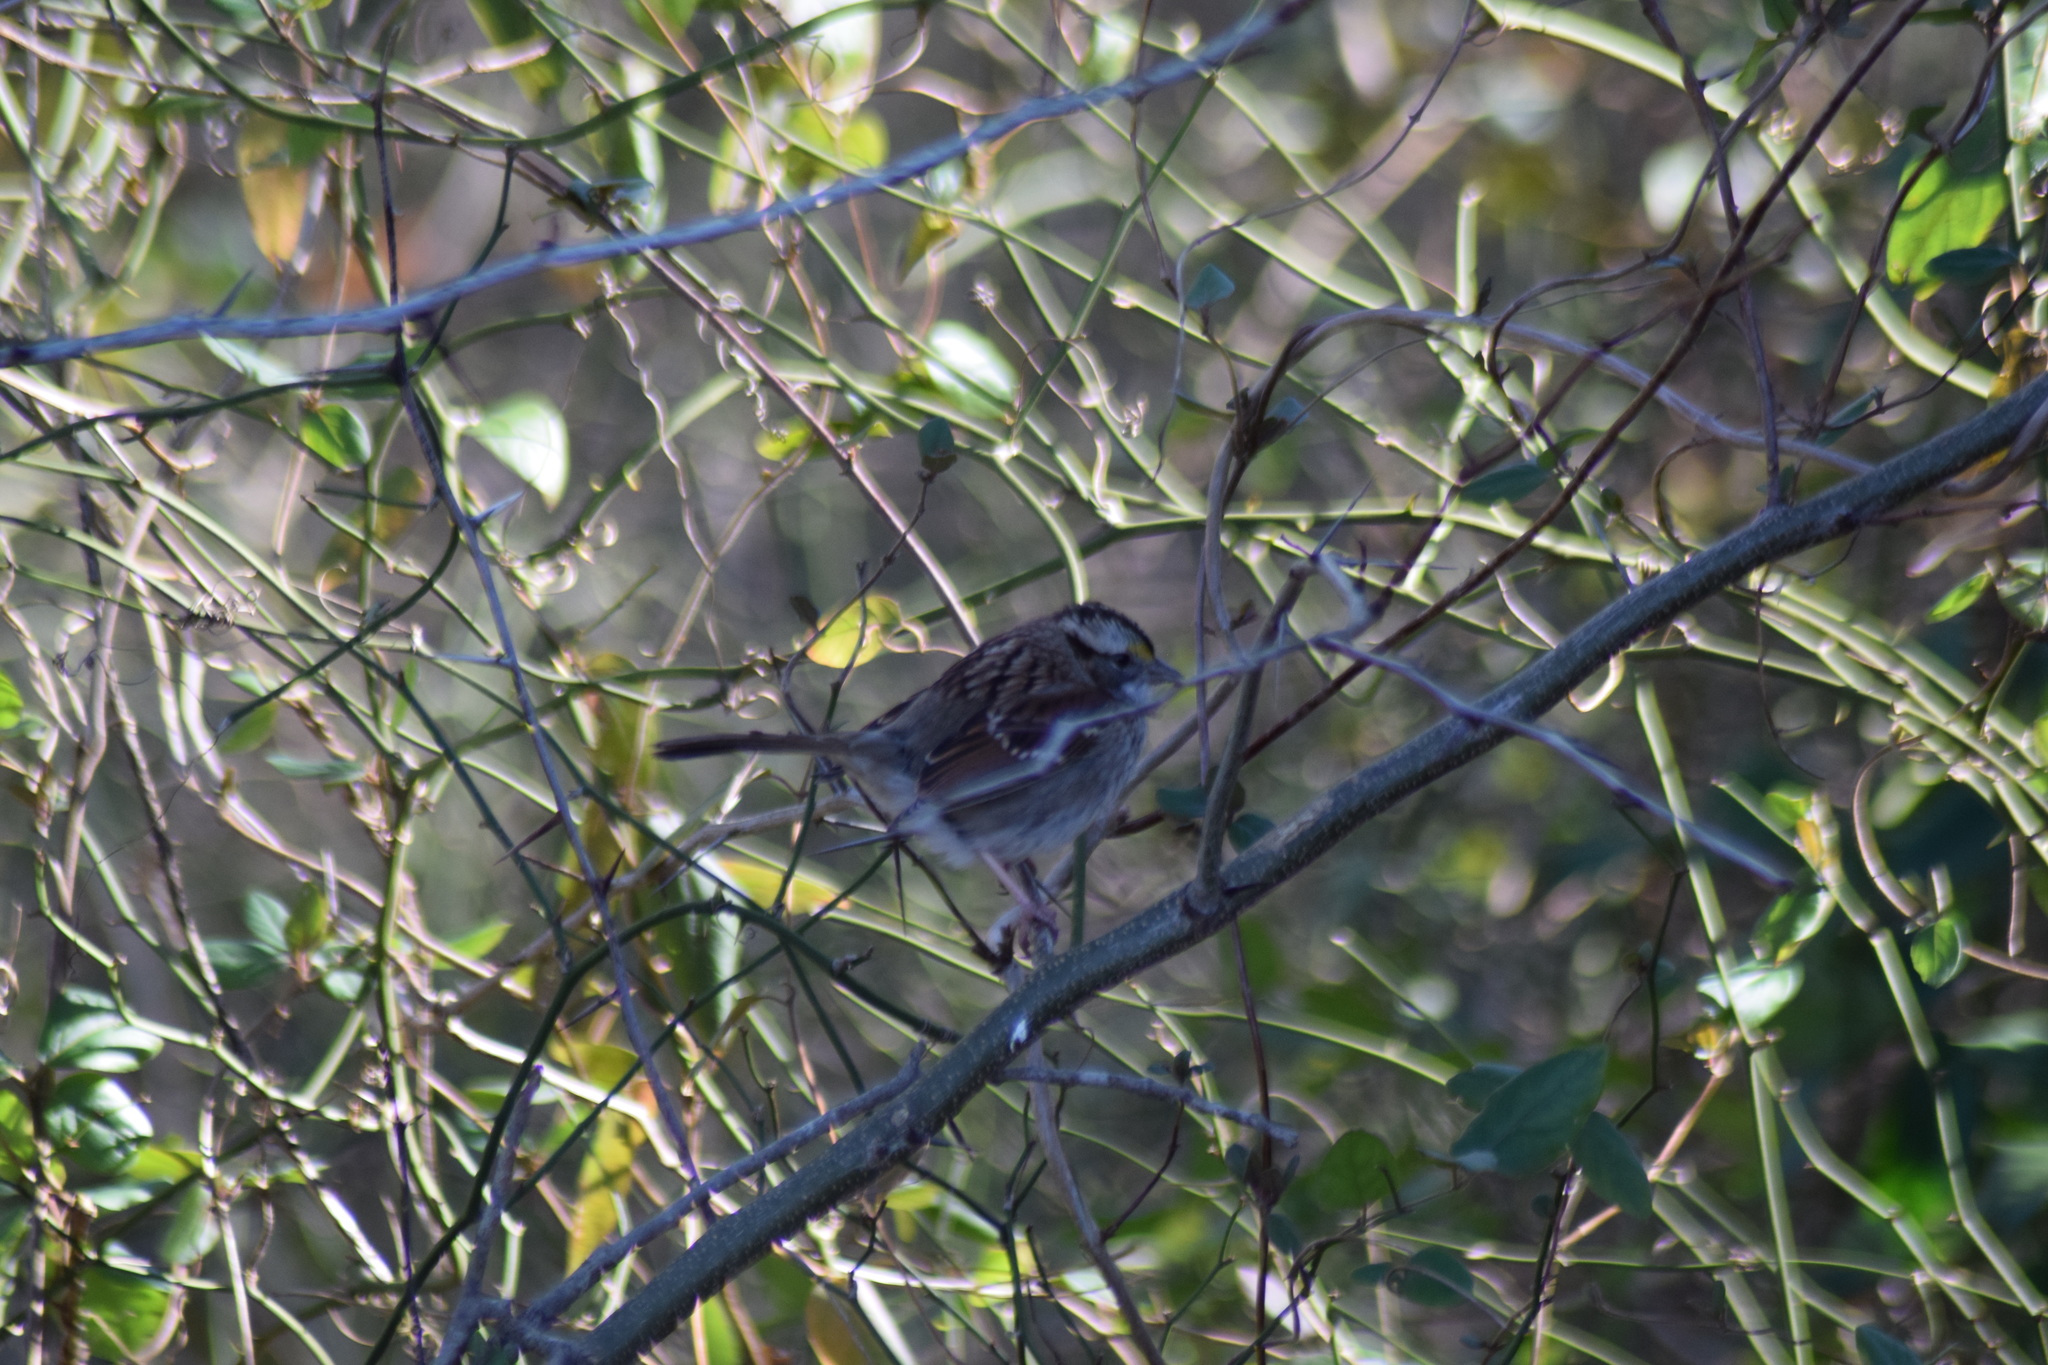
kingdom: Animalia
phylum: Chordata
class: Aves
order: Passeriformes
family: Passerellidae
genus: Zonotrichia
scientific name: Zonotrichia albicollis
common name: White-throated sparrow
